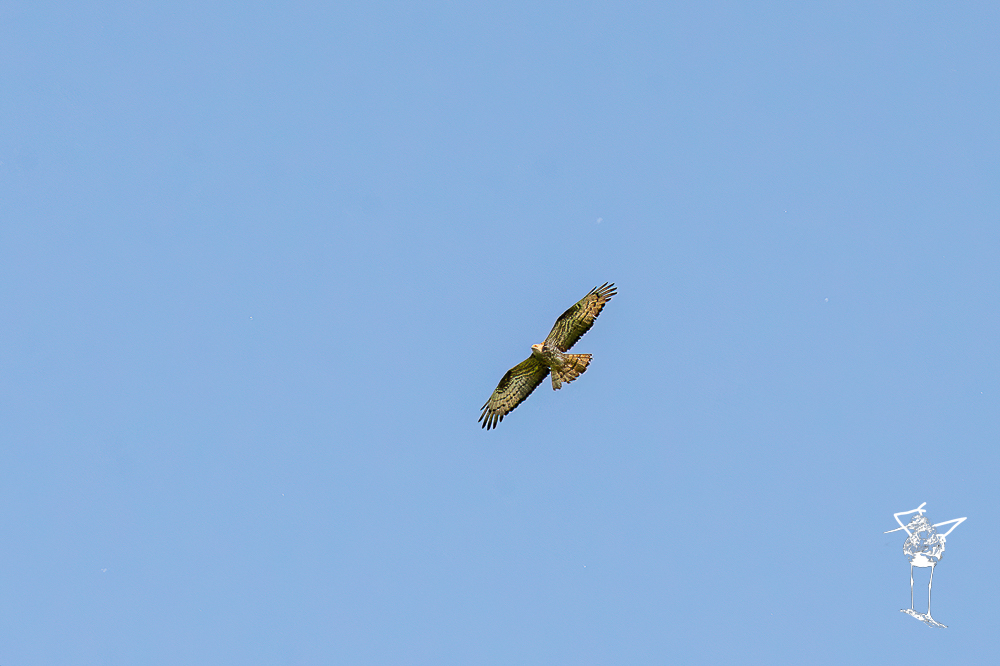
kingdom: Animalia
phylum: Chordata
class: Aves
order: Accipitriformes
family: Accipitridae
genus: Pernis
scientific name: Pernis apivorus
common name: European honey buzzard
